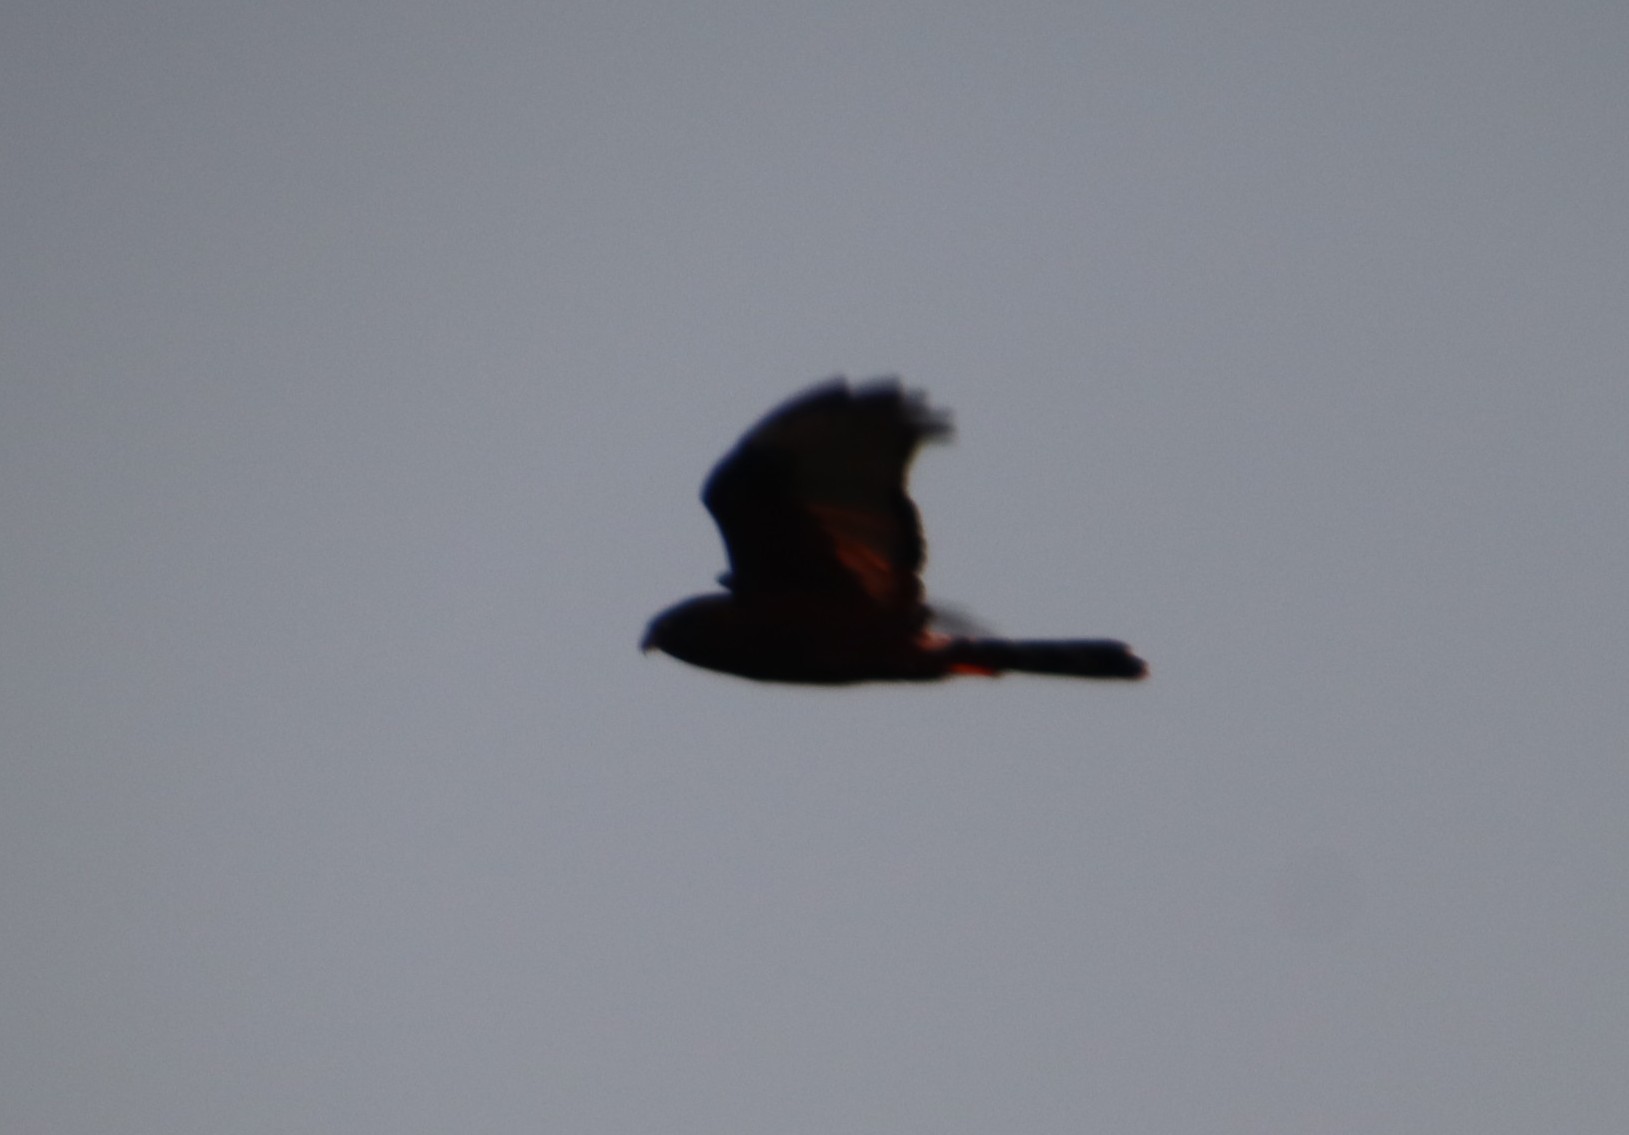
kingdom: Animalia
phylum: Chordata
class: Aves
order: Accipitriformes
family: Accipitridae
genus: Circus
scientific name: Circus maurus
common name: Black harrier
